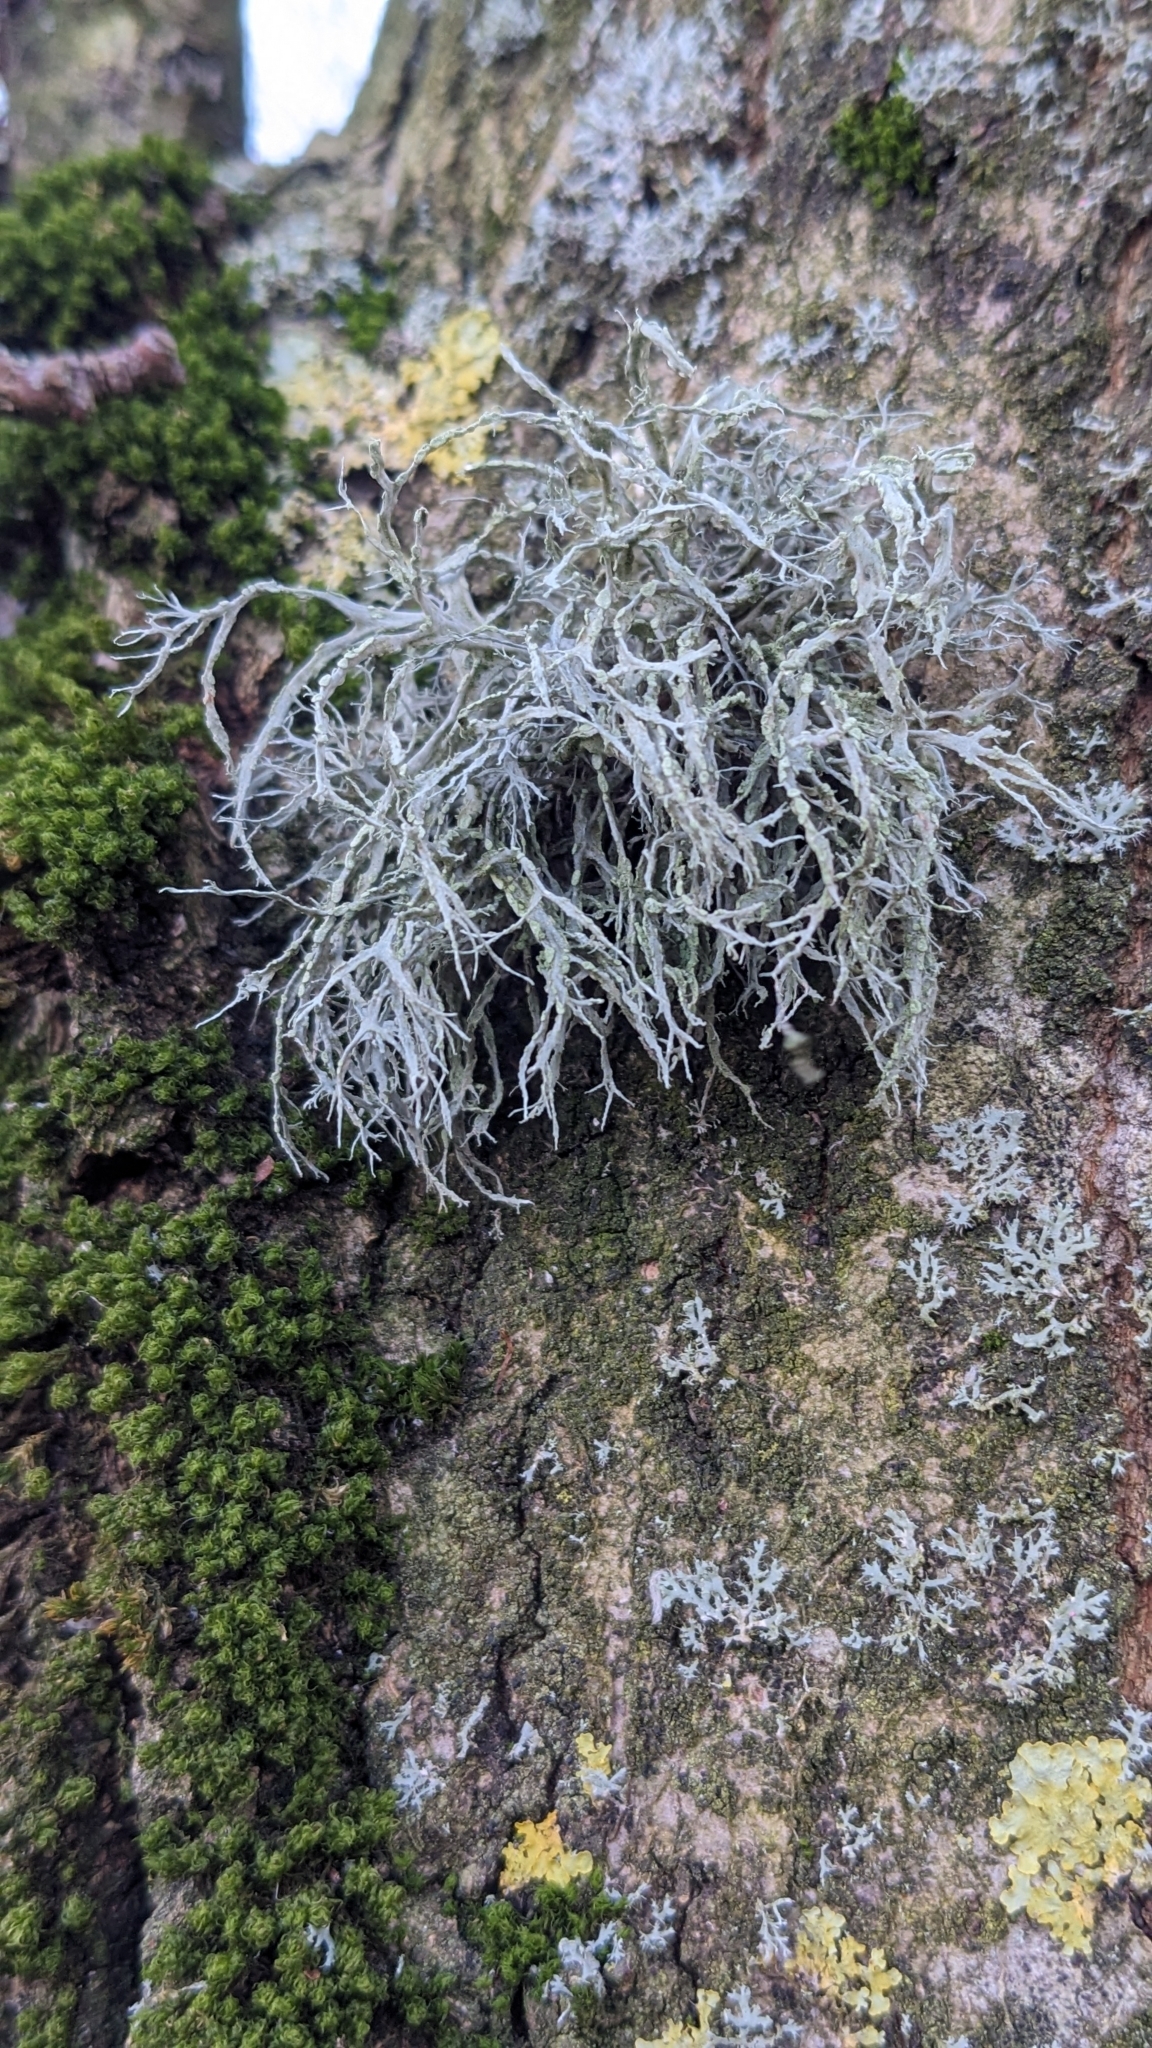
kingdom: Fungi
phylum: Ascomycota
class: Lecanoromycetes
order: Lecanorales
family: Ramalinaceae
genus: Ramalina
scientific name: Ramalina farinacea
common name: Farinose cartilage lichen
